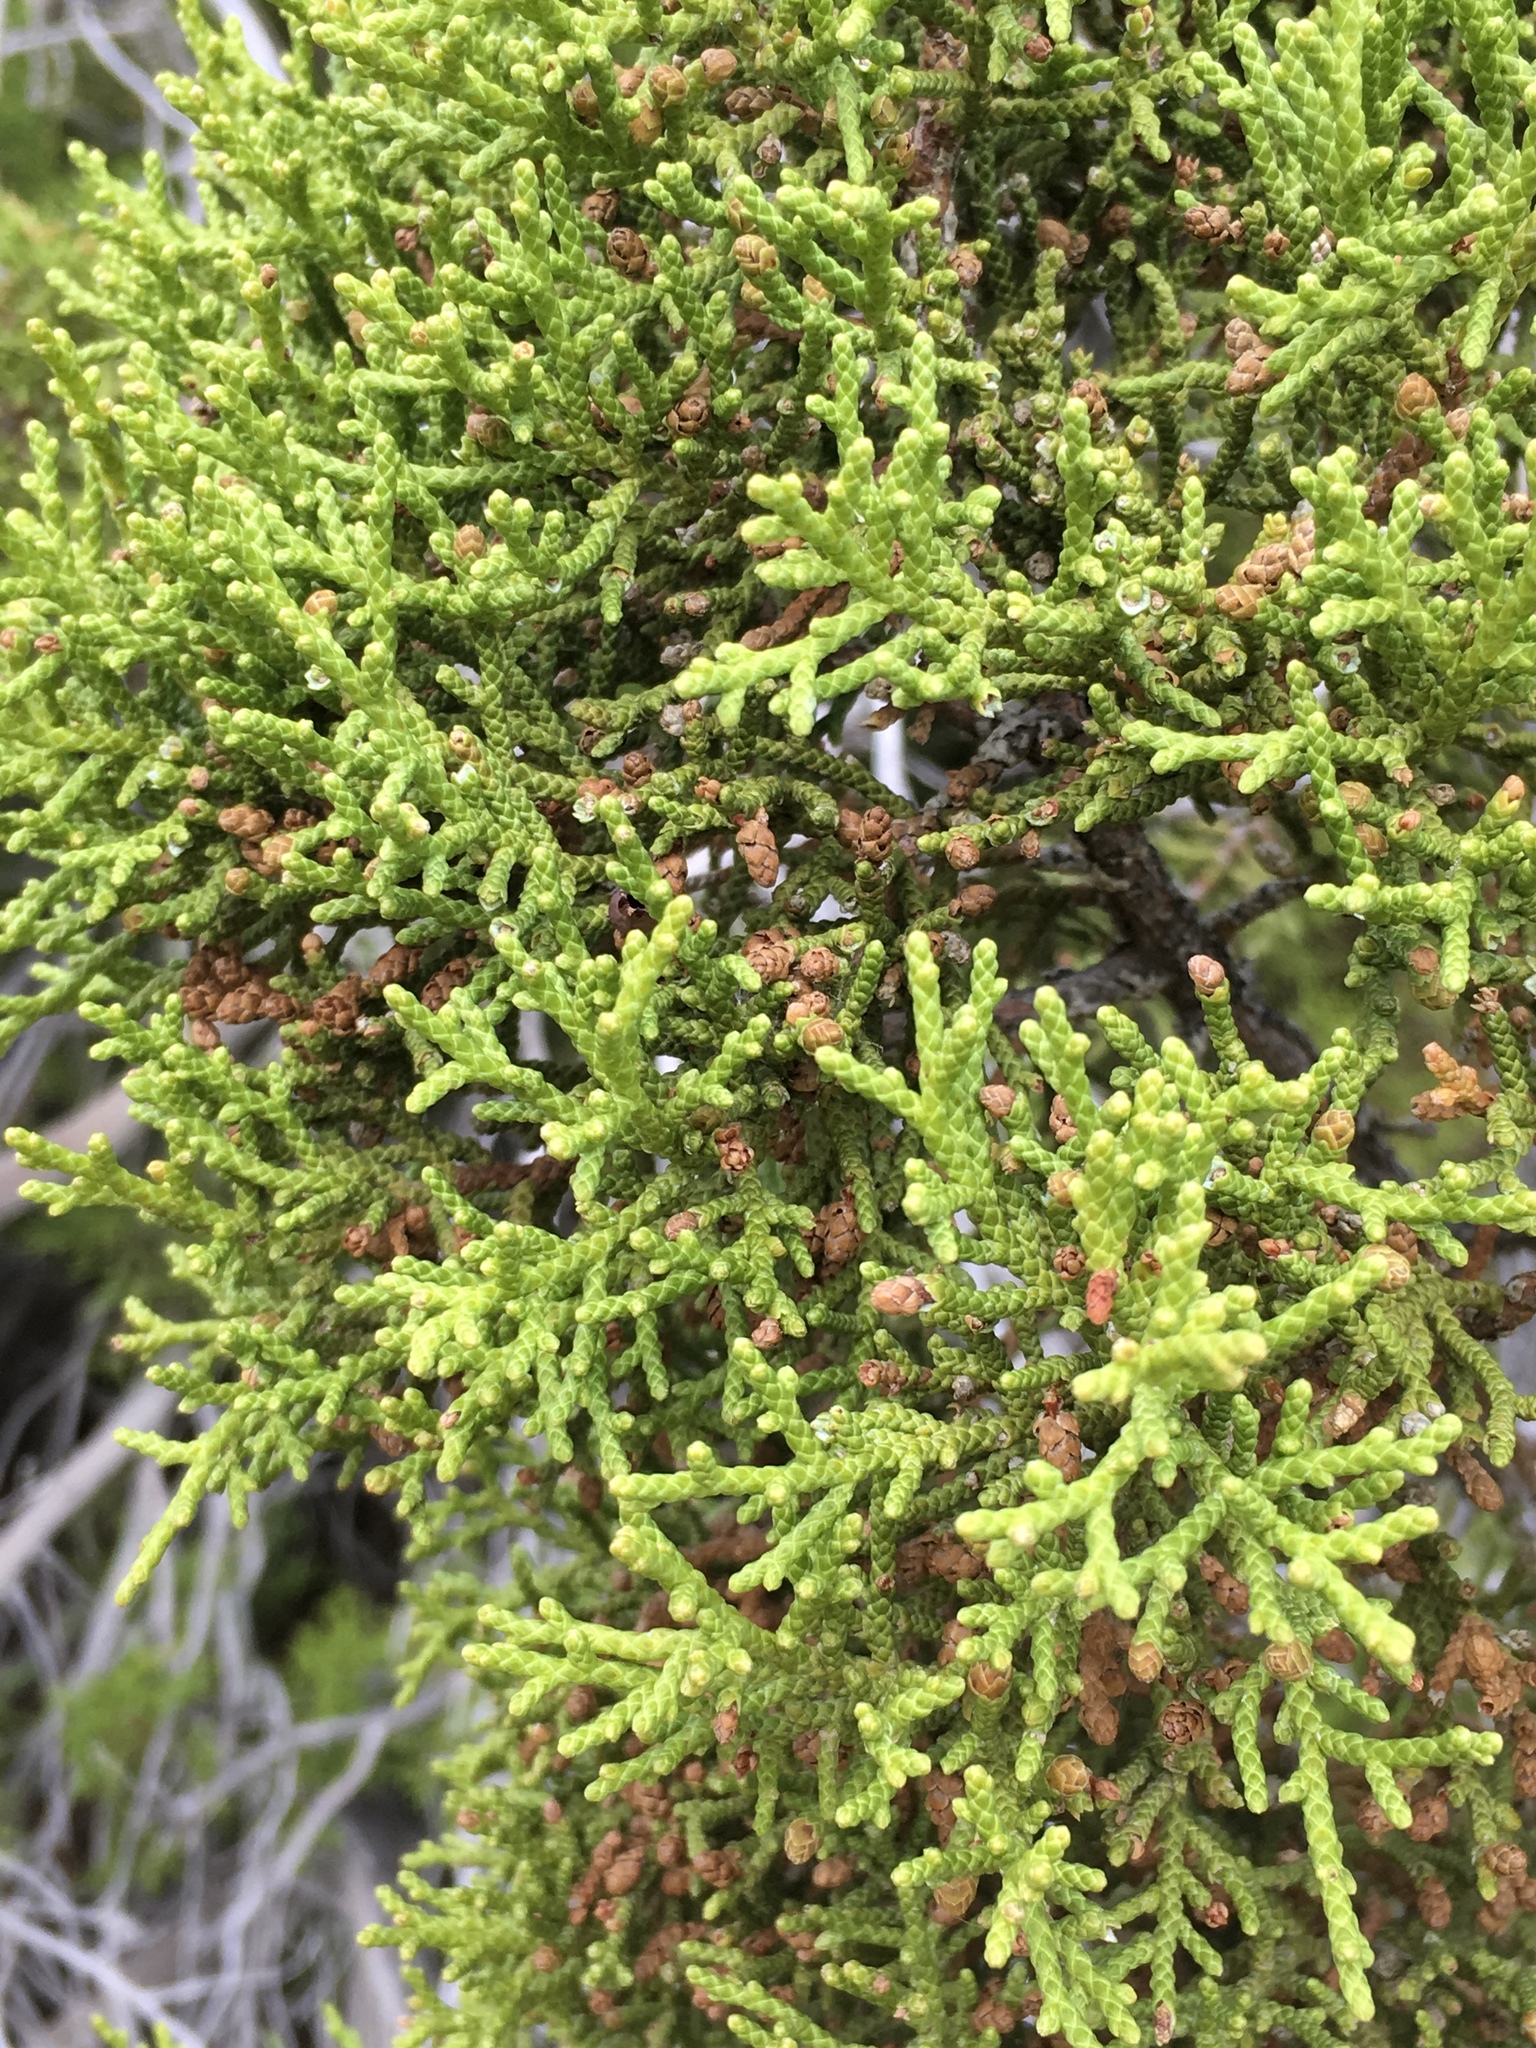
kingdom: Plantae
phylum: Tracheophyta
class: Pinopsida
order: Pinales
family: Cupressaceae
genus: Juniperus
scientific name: Juniperus californica
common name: California juniper
